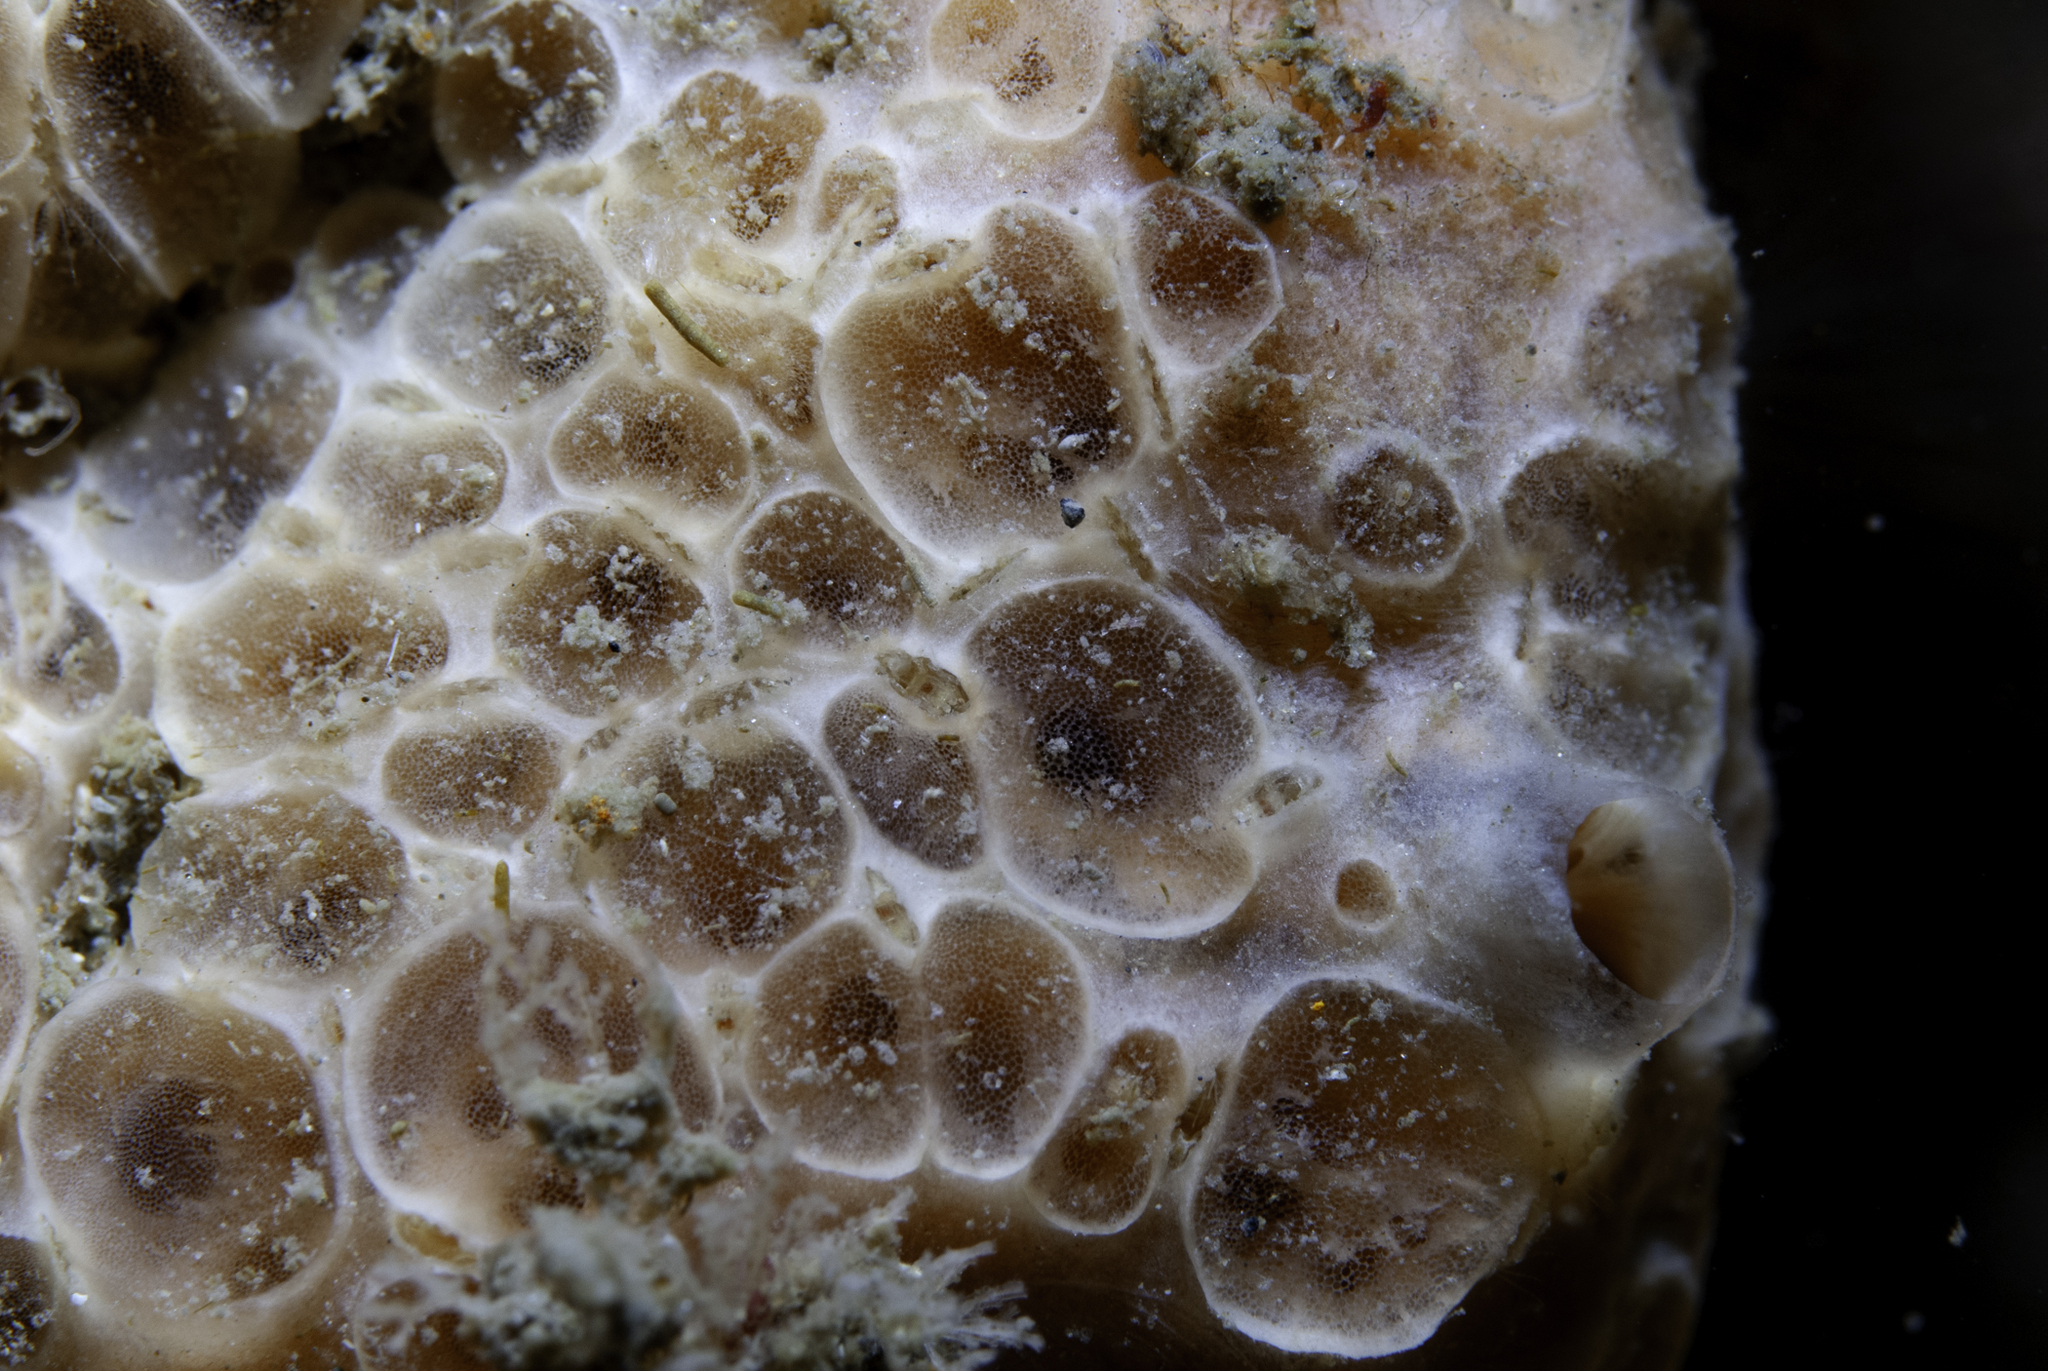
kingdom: Animalia
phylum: Porifera
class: Demospongiae
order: Poecilosclerida
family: Hymedesmiidae
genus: Hemimycale
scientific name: Hemimycale columella
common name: Crater sponge
